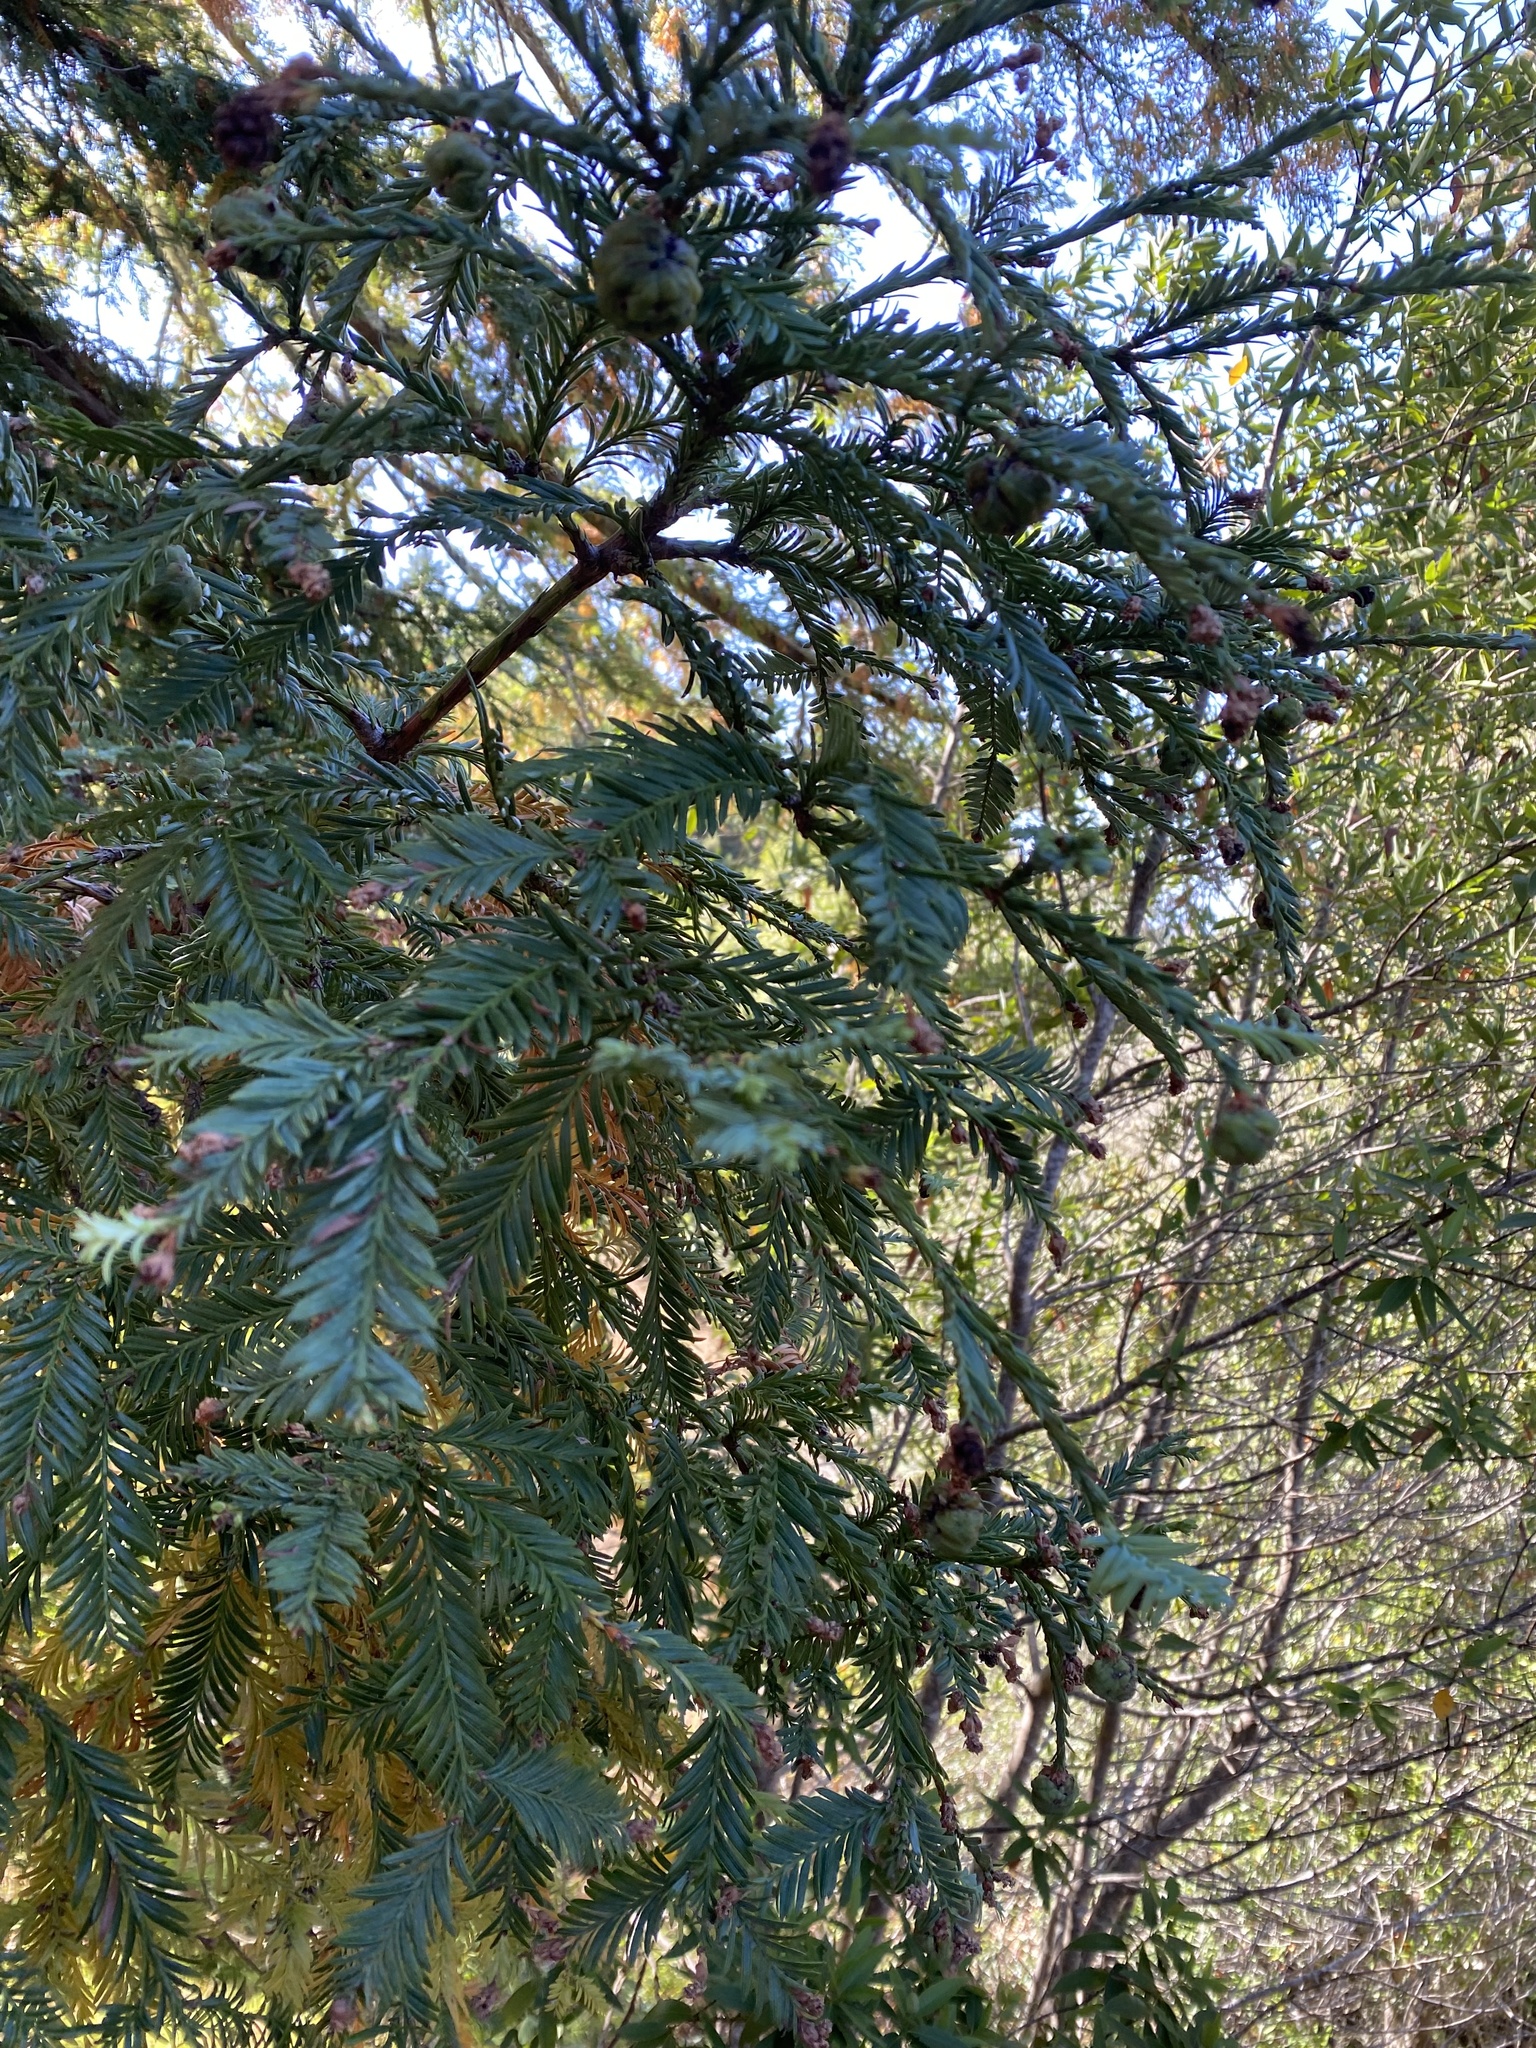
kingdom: Plantae
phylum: Tracheophyta
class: Pinopsida
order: Pinales
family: Cupressaceae
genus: Sequoia
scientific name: Sequoia sempervirens
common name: Coast redwood
